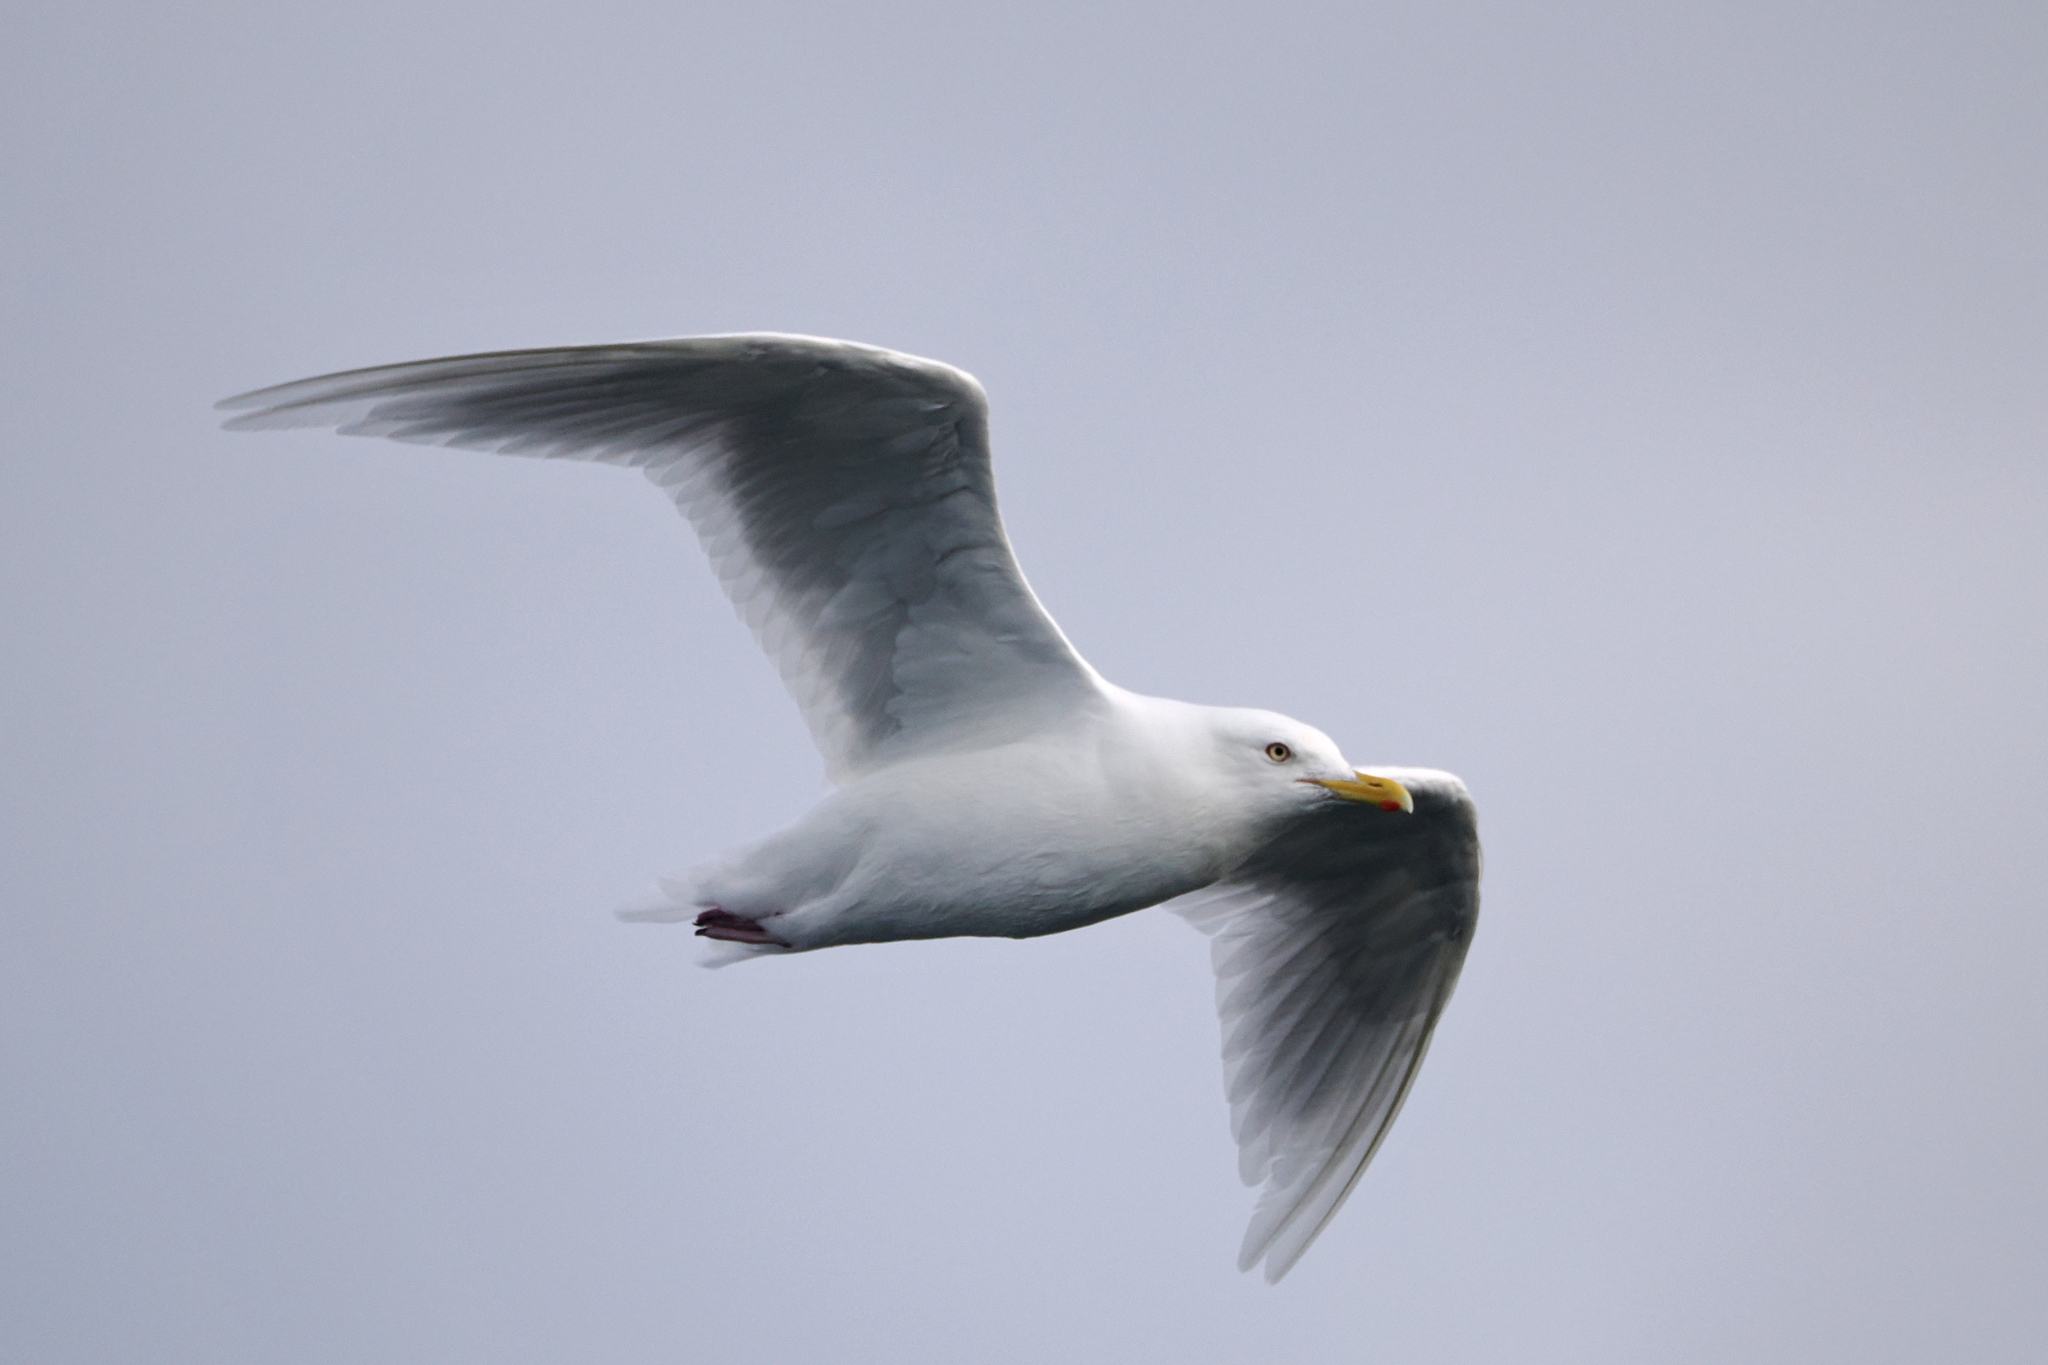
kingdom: Animalia
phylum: Chordata
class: Aves
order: Charadriiformes
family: Laridae
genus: Larus
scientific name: Larus hyperboreus
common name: Glaucous gull
